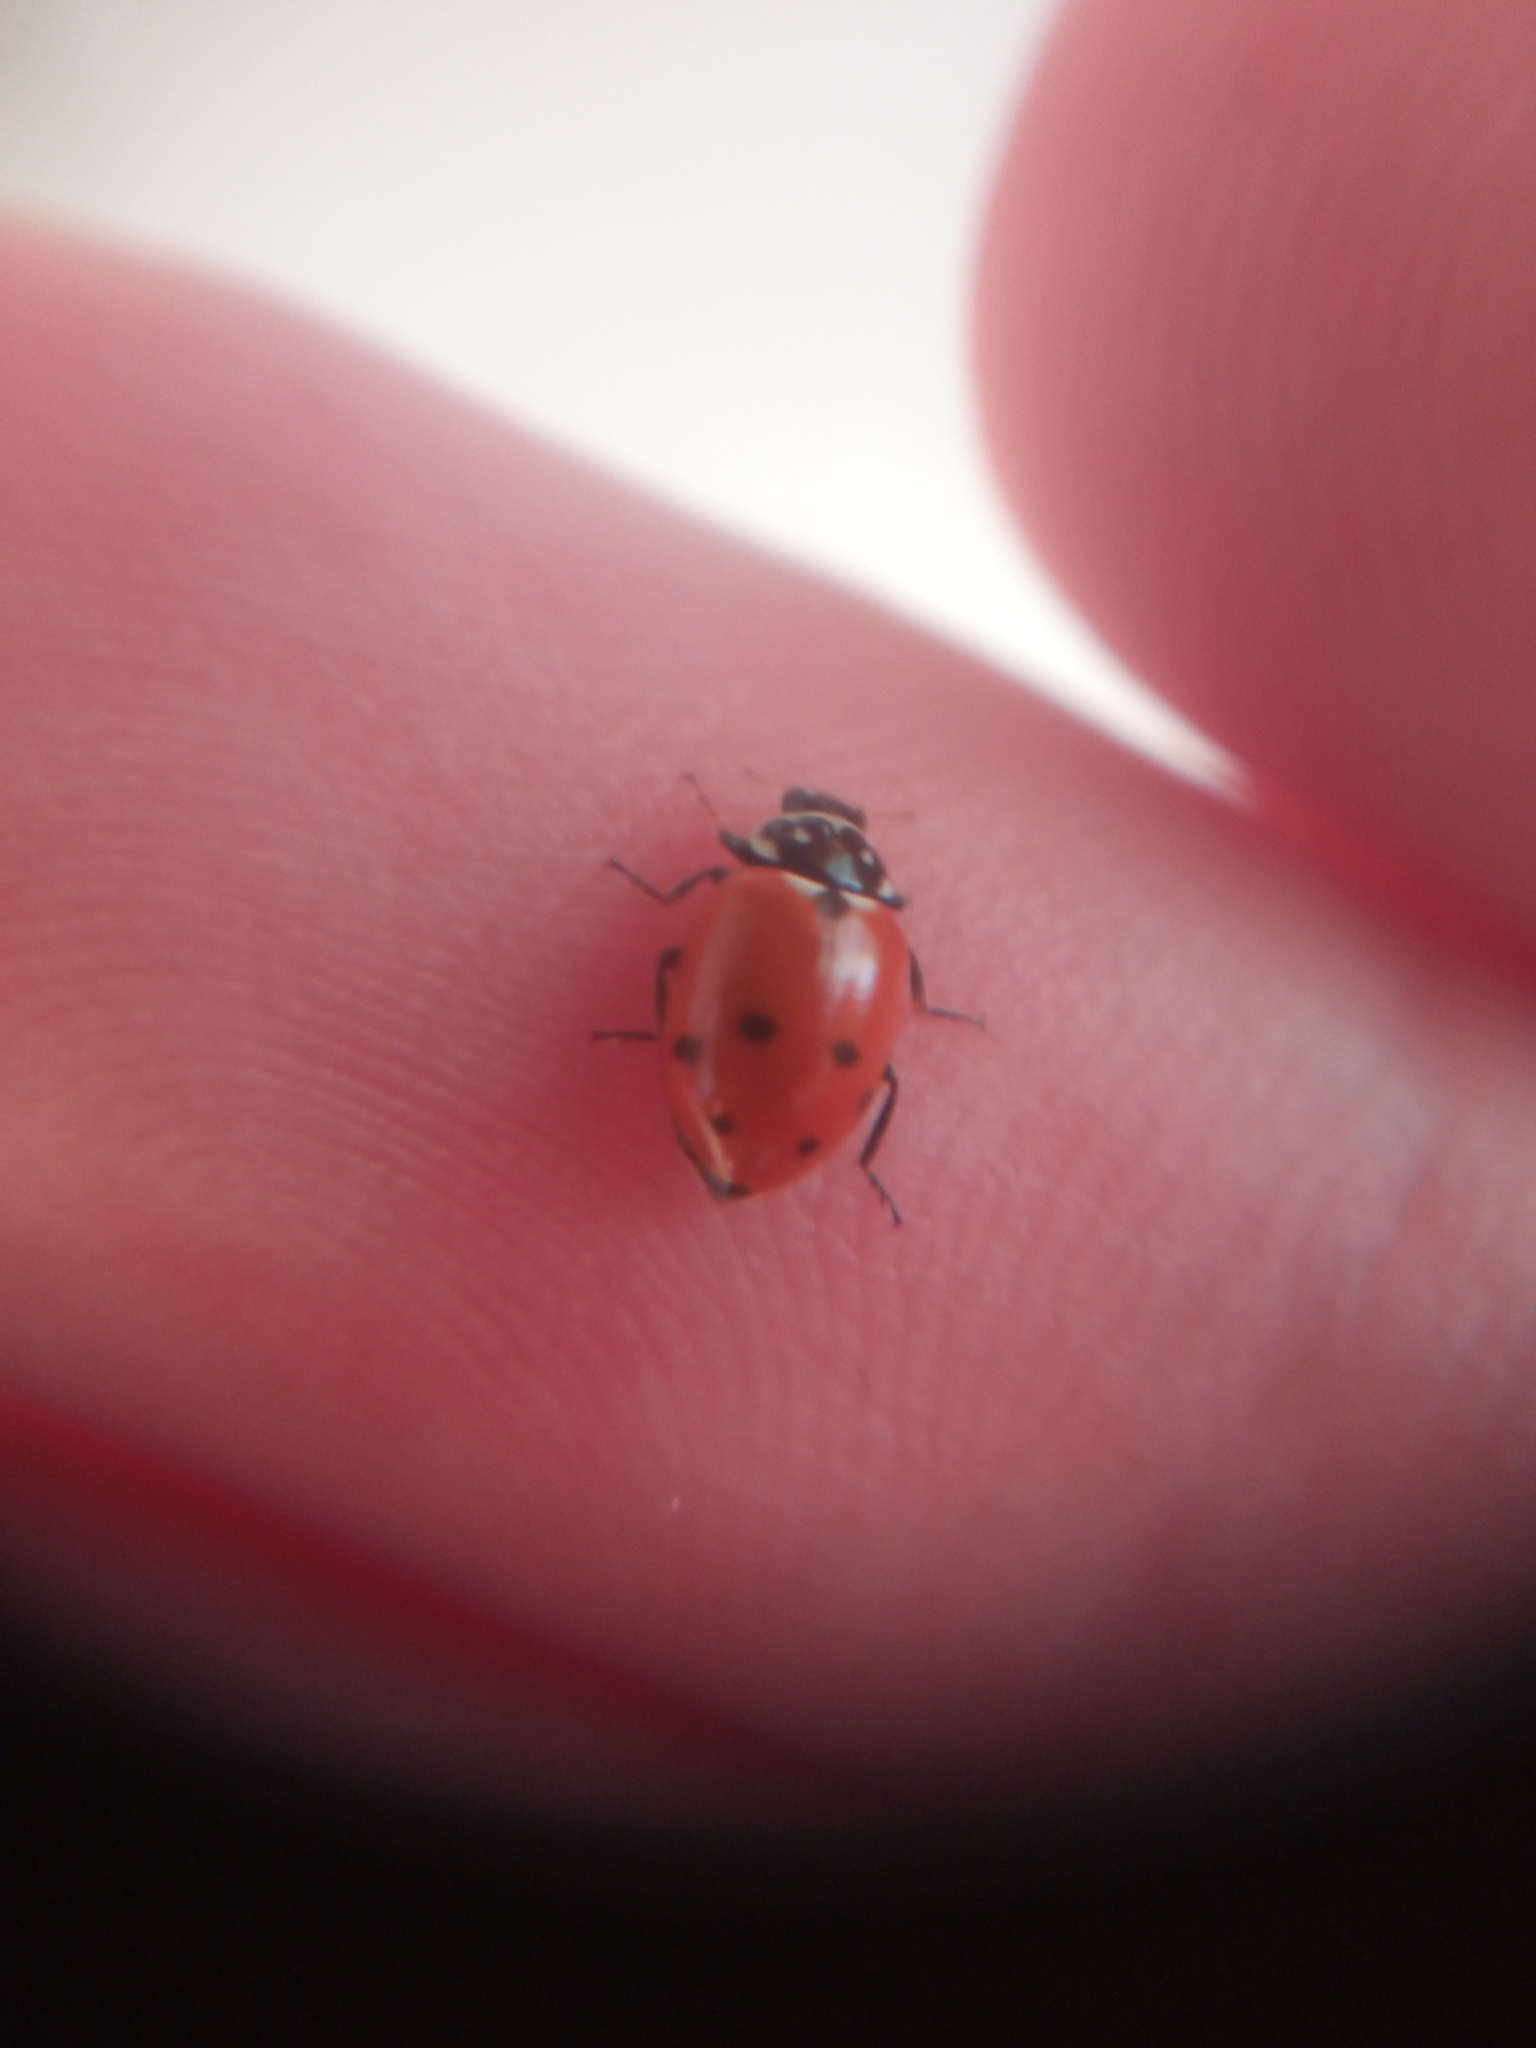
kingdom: Animalia
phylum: Arthropoda
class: Insecta
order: Coleoptera
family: Coccinellidae
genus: Hippodamia
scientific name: Hippodamia variegata
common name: Ladybird beetle
